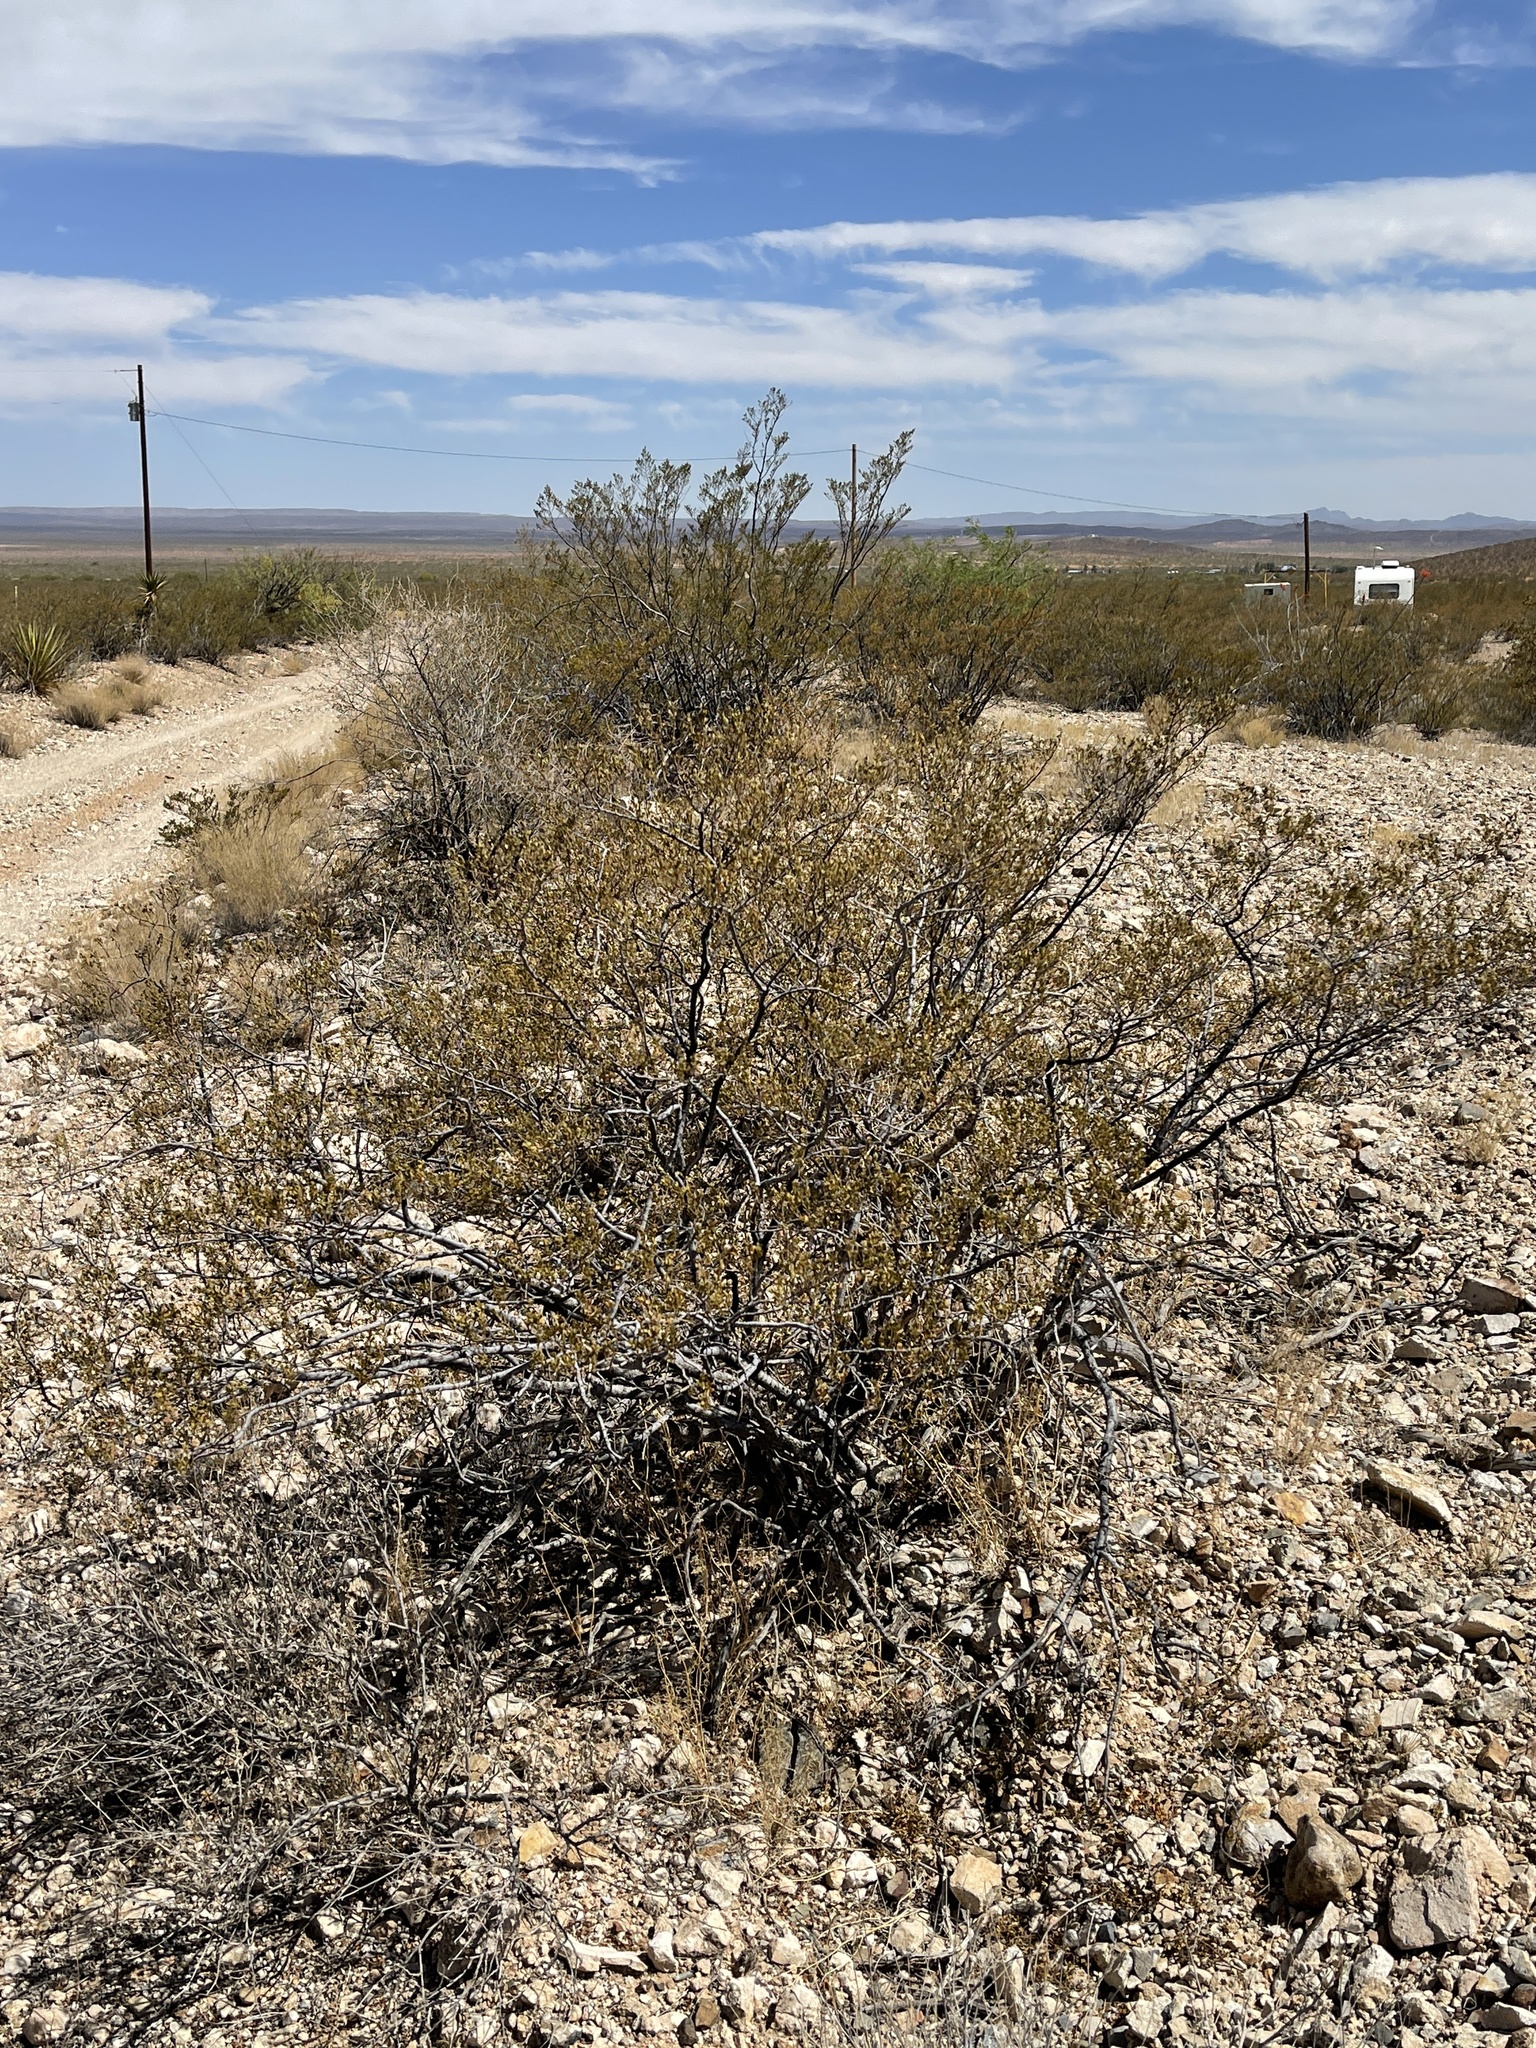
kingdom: Plantae
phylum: Tracheophyta
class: Magnoliopsida
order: Zygophyllales
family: Zygophyllaceae
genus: Larrea
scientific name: Larrea tridentata
